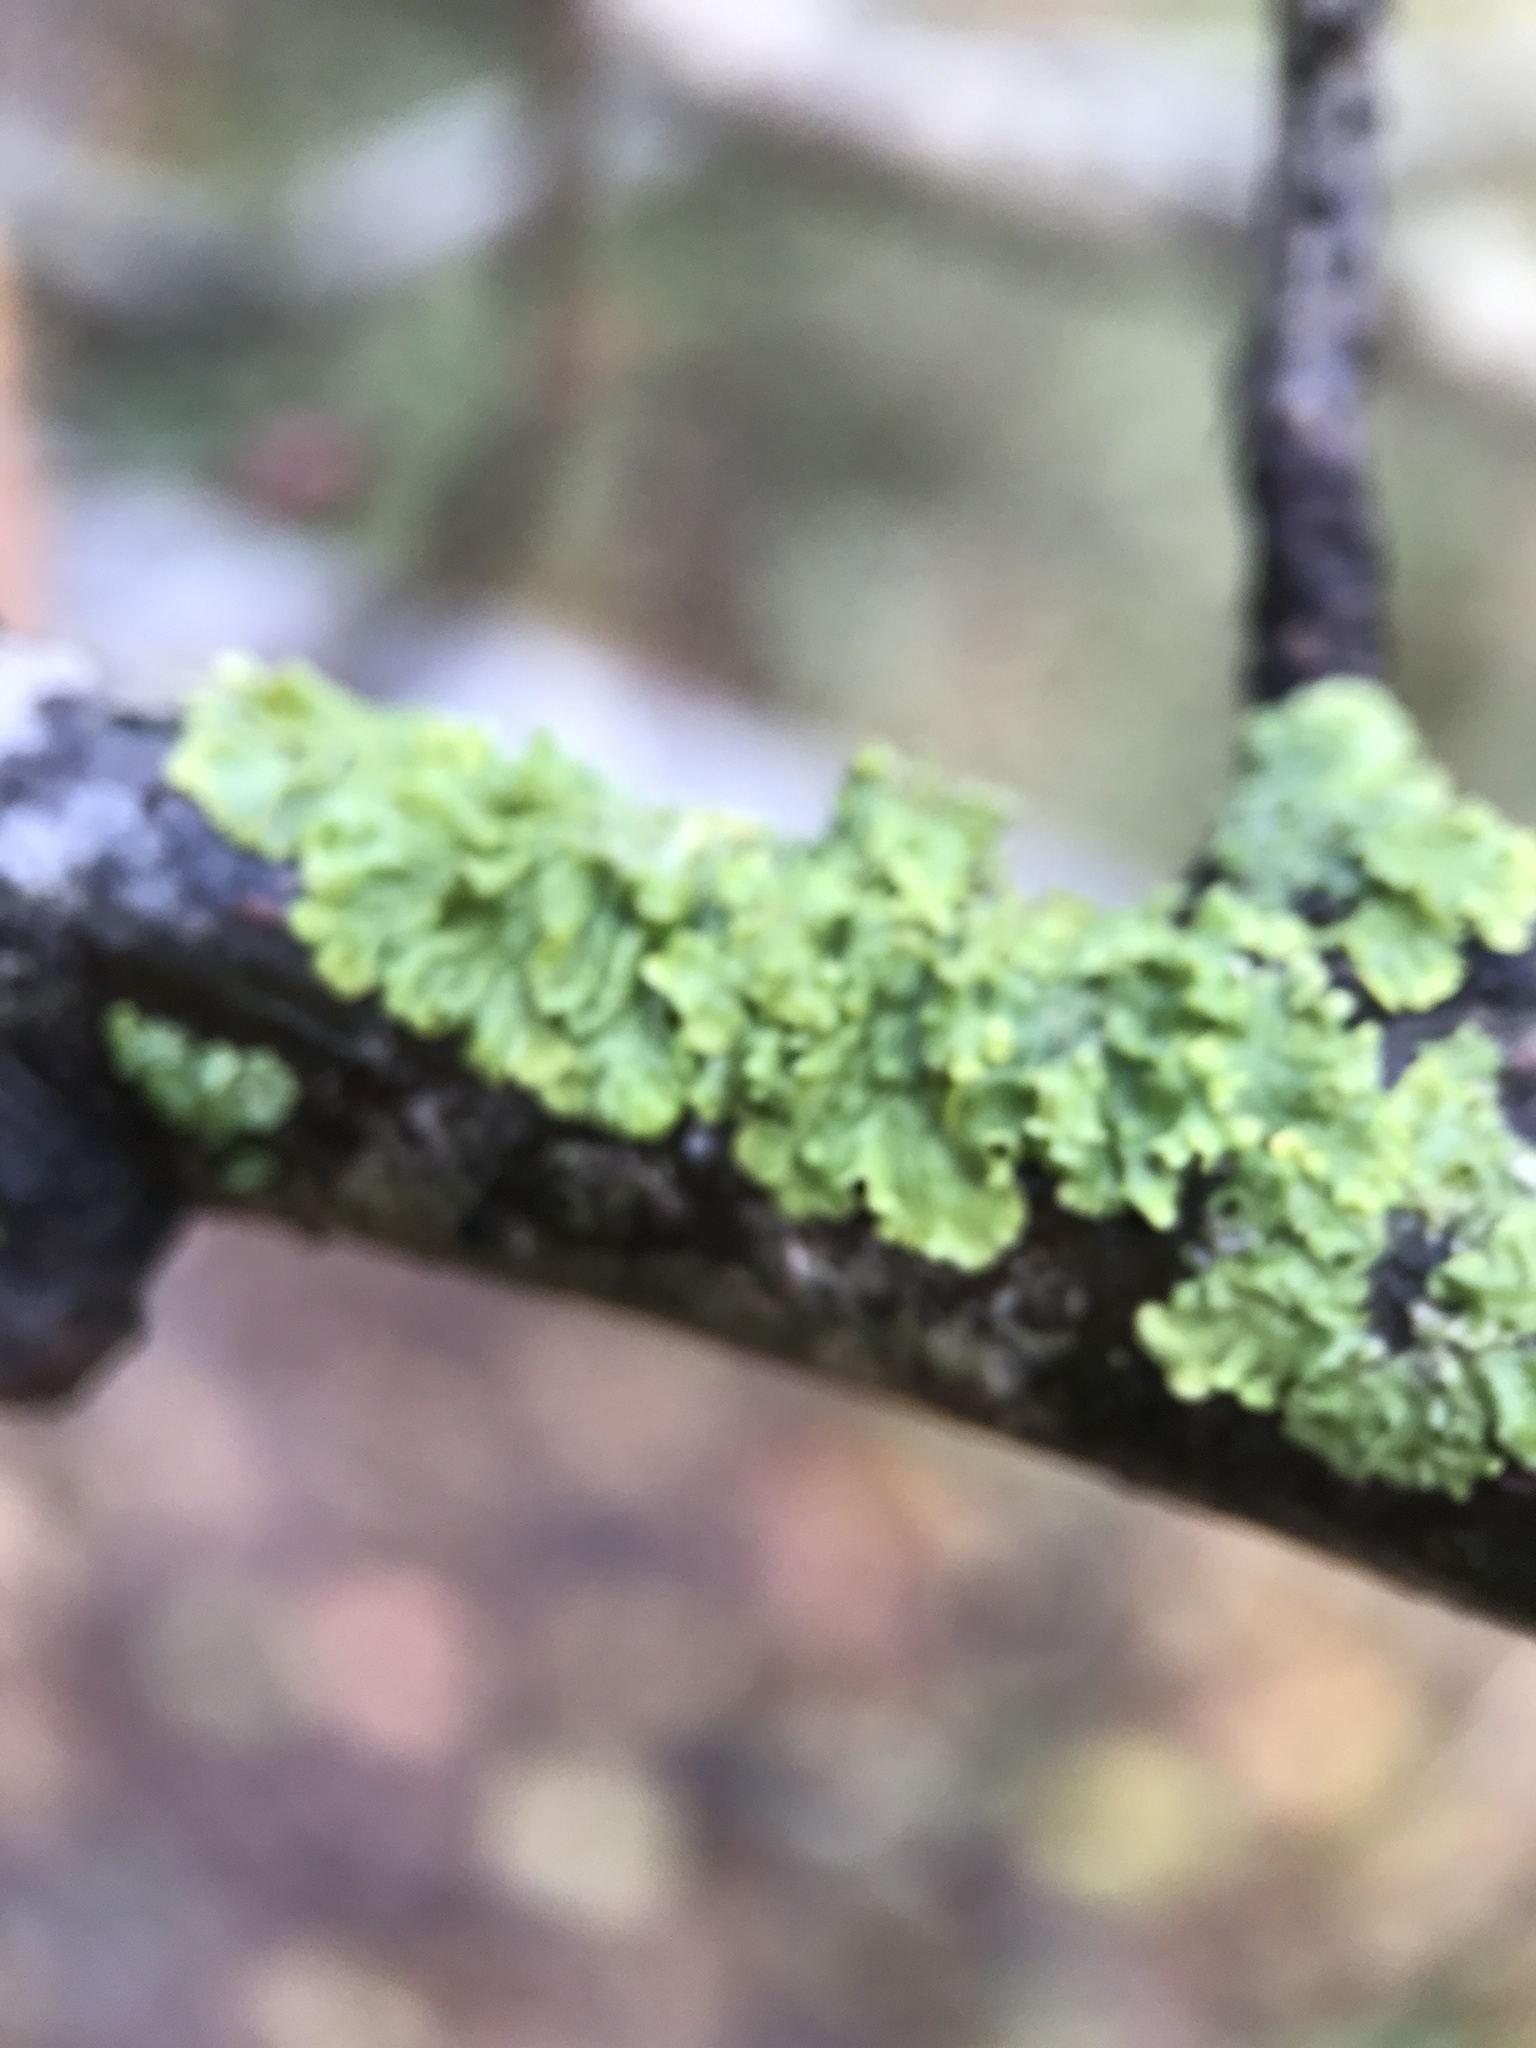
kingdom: Fungi
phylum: Ascomycota
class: Lecanoromycetes
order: Teloschistales
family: Teloschistaceae
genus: Xanthoria
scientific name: Xanthoria parietina
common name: Common orange lichen
